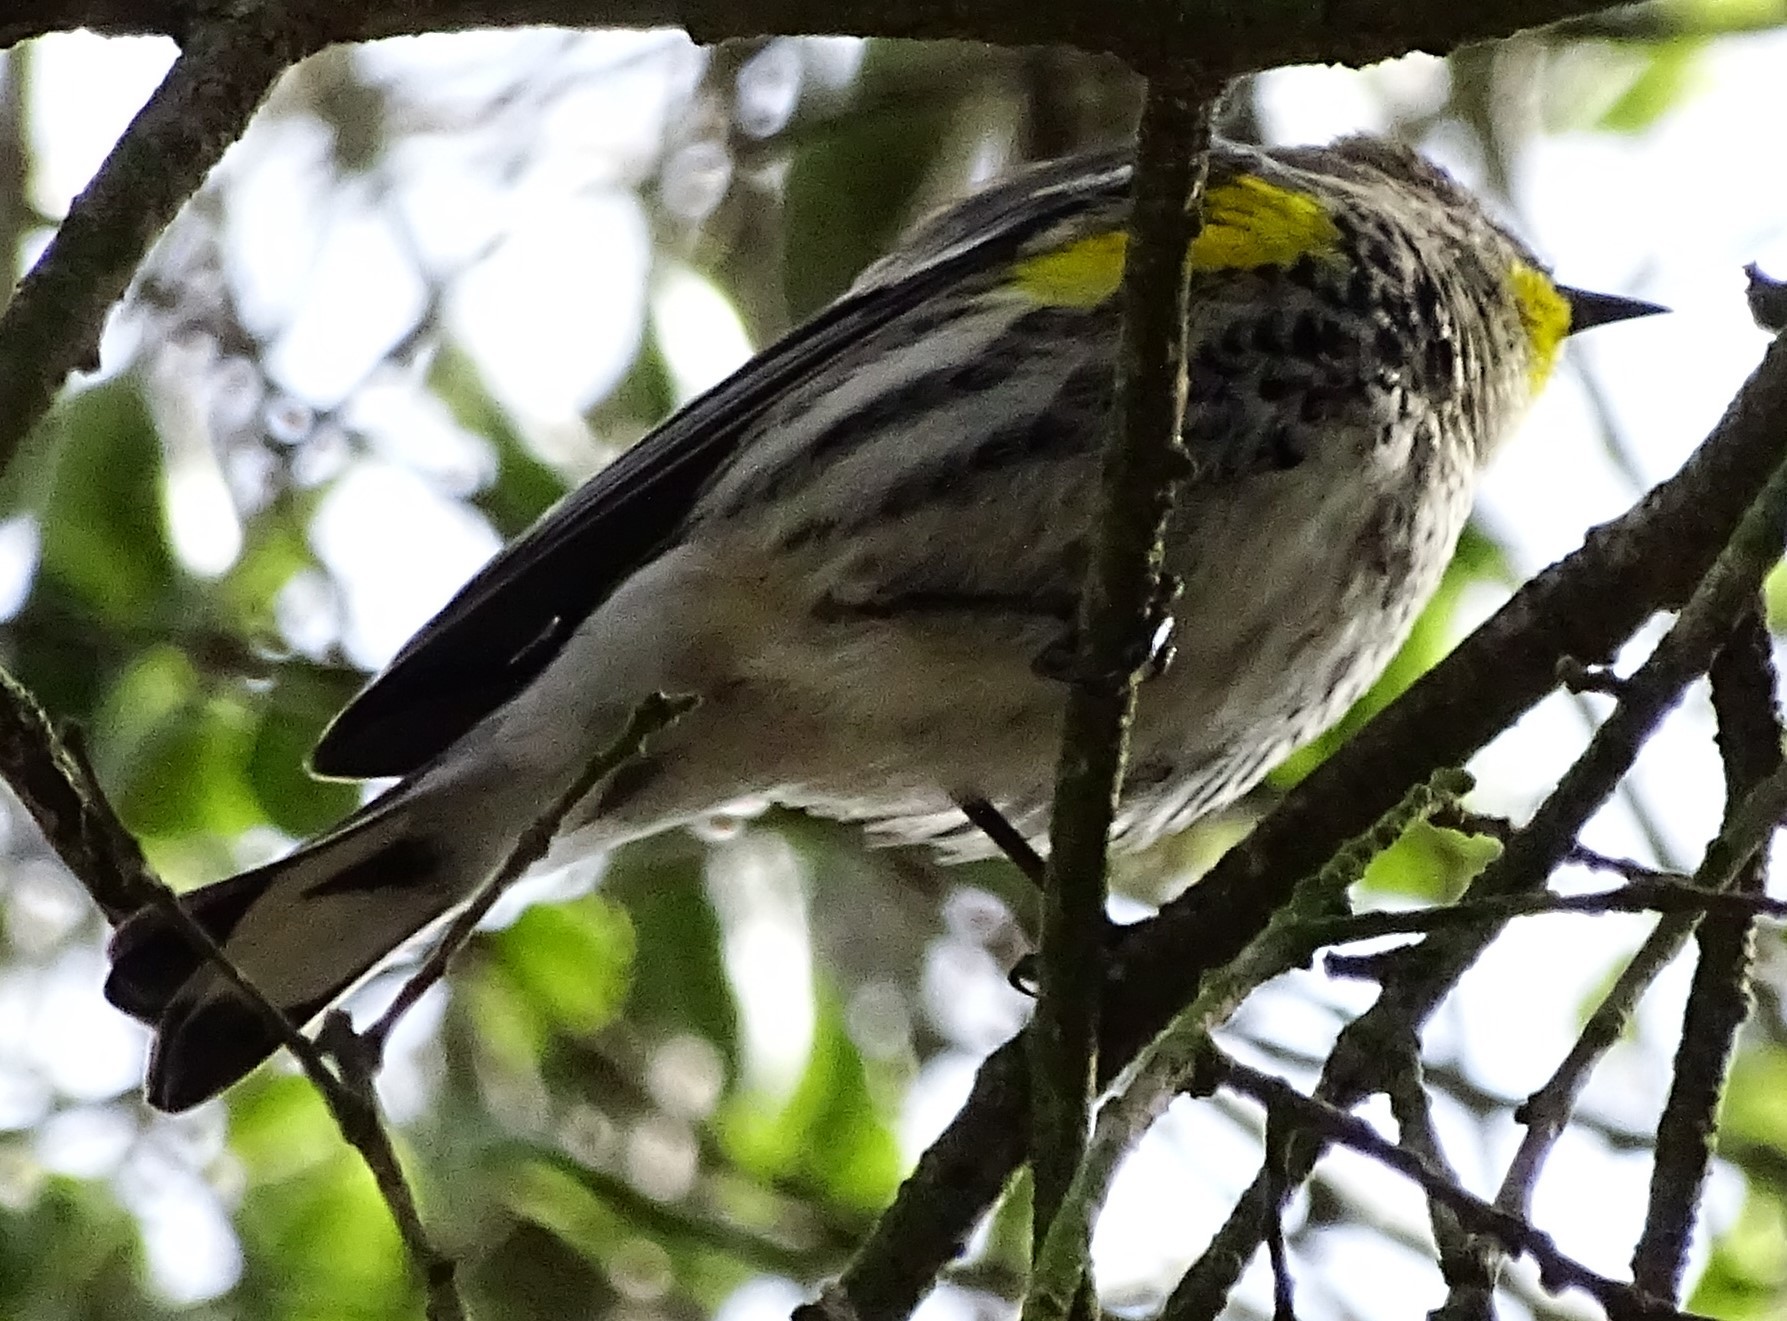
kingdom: Animalia
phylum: Chordata
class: Aves
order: Passeriformes
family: Parulidae
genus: Setophaga
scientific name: Setophaga coronata
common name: Myrtle warbler
